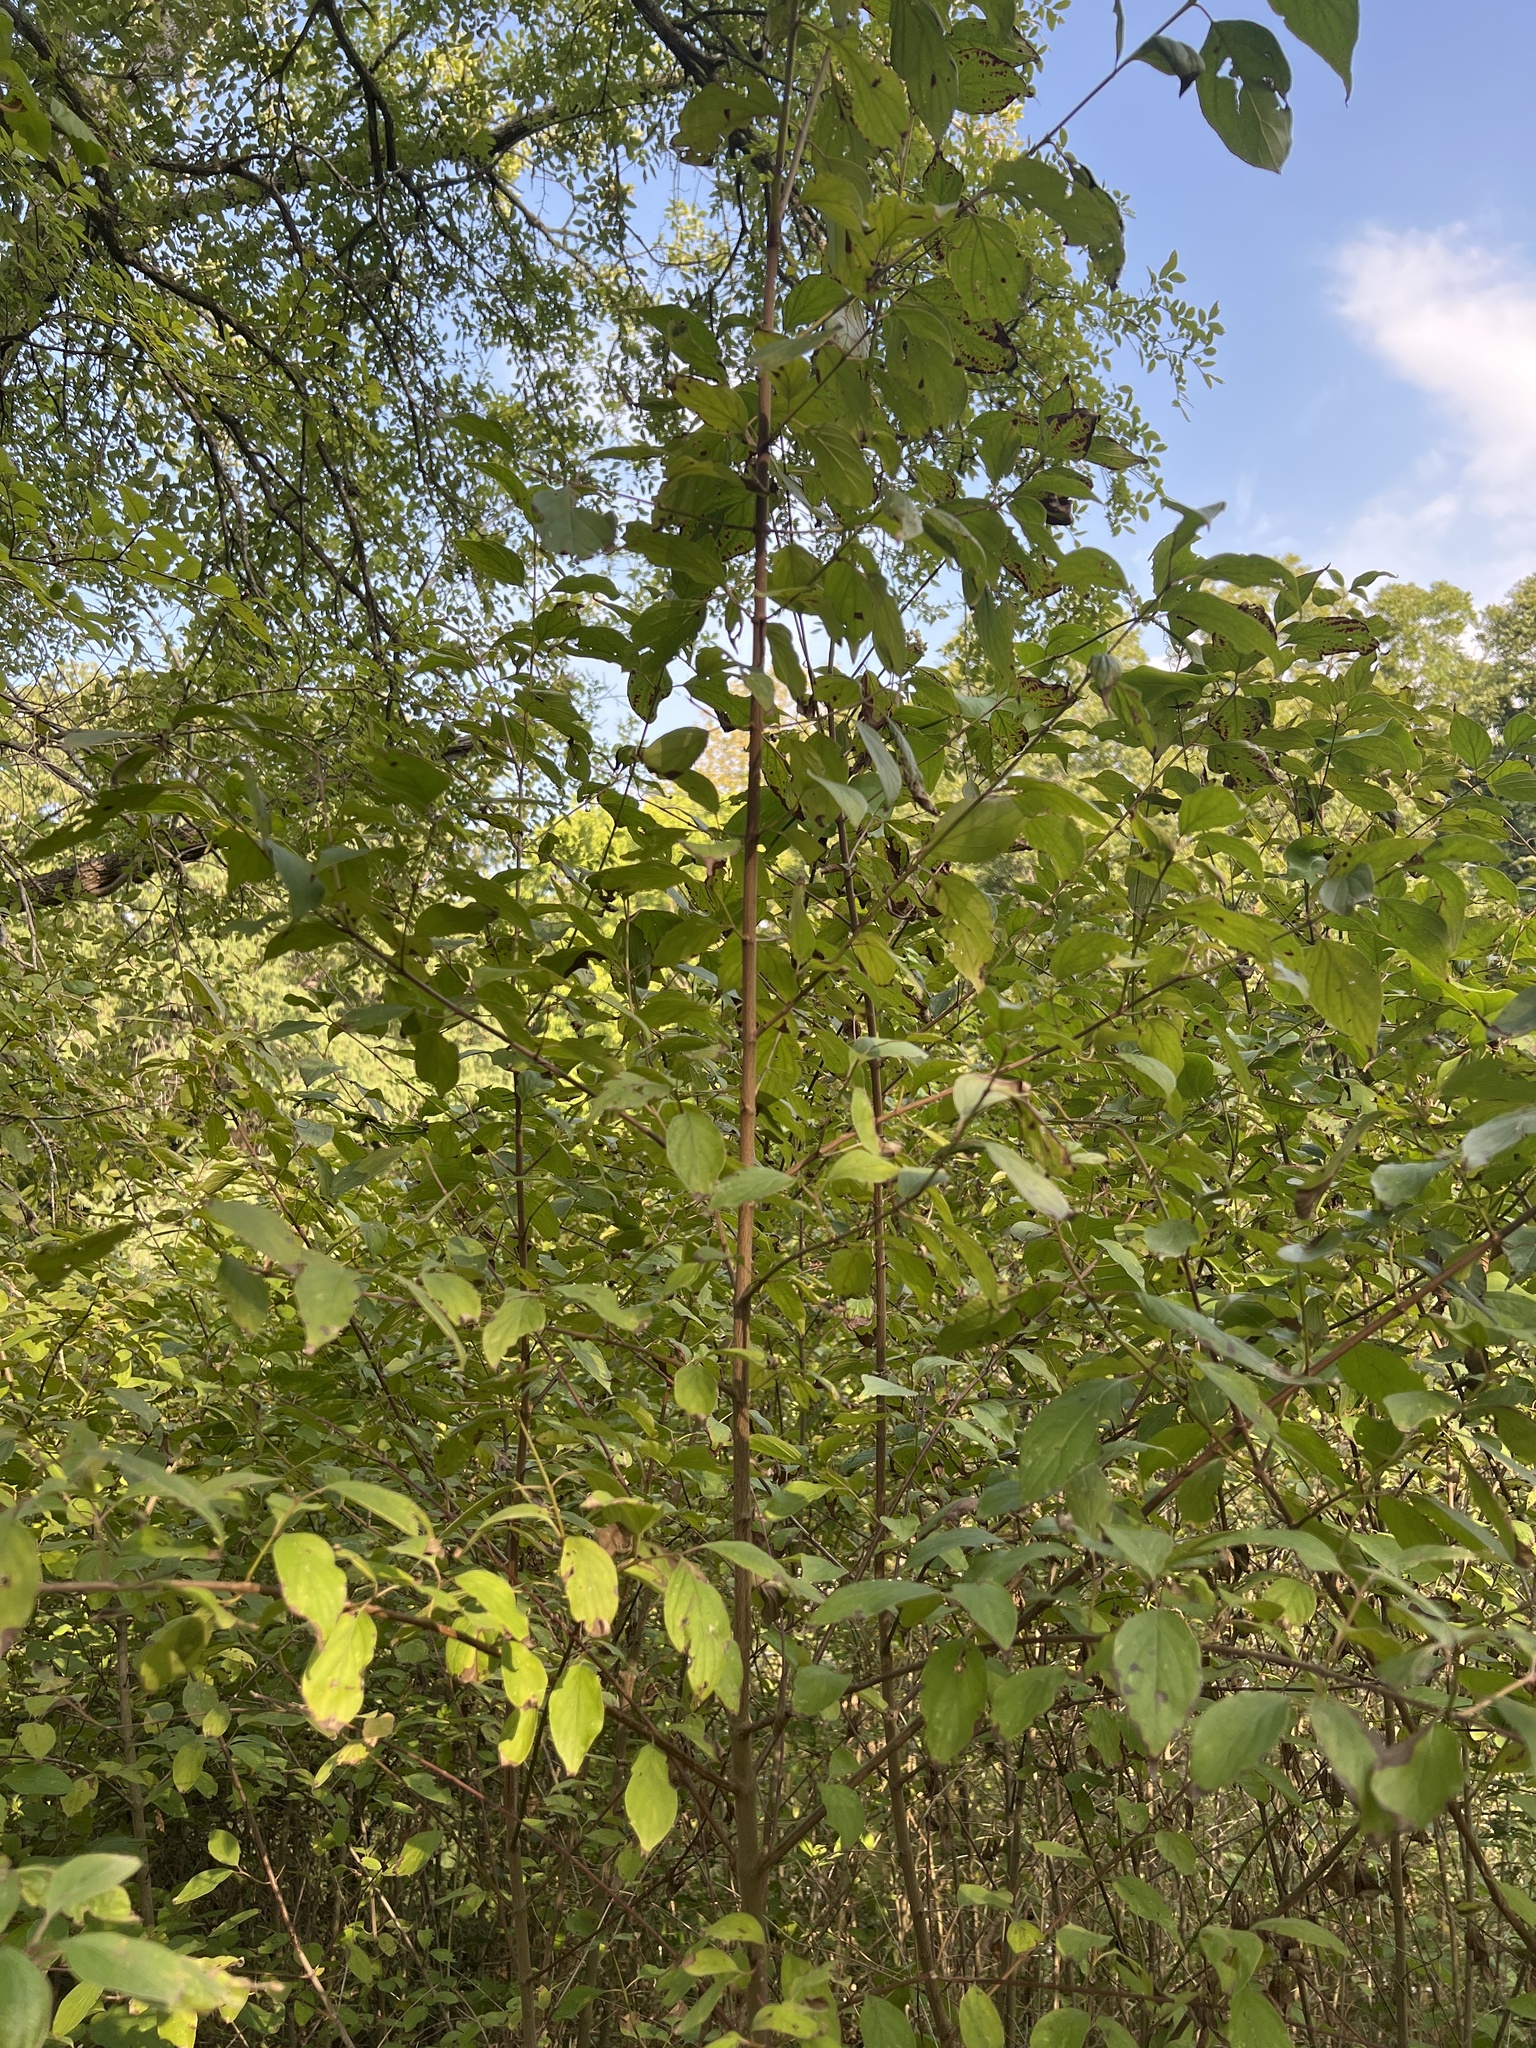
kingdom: Plantae
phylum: Tracheophyta
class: Magnoliopsida
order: Cornales
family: Cornaceae
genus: Cornus
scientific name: Cornus drummondii
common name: Rough-leaf dogwood
